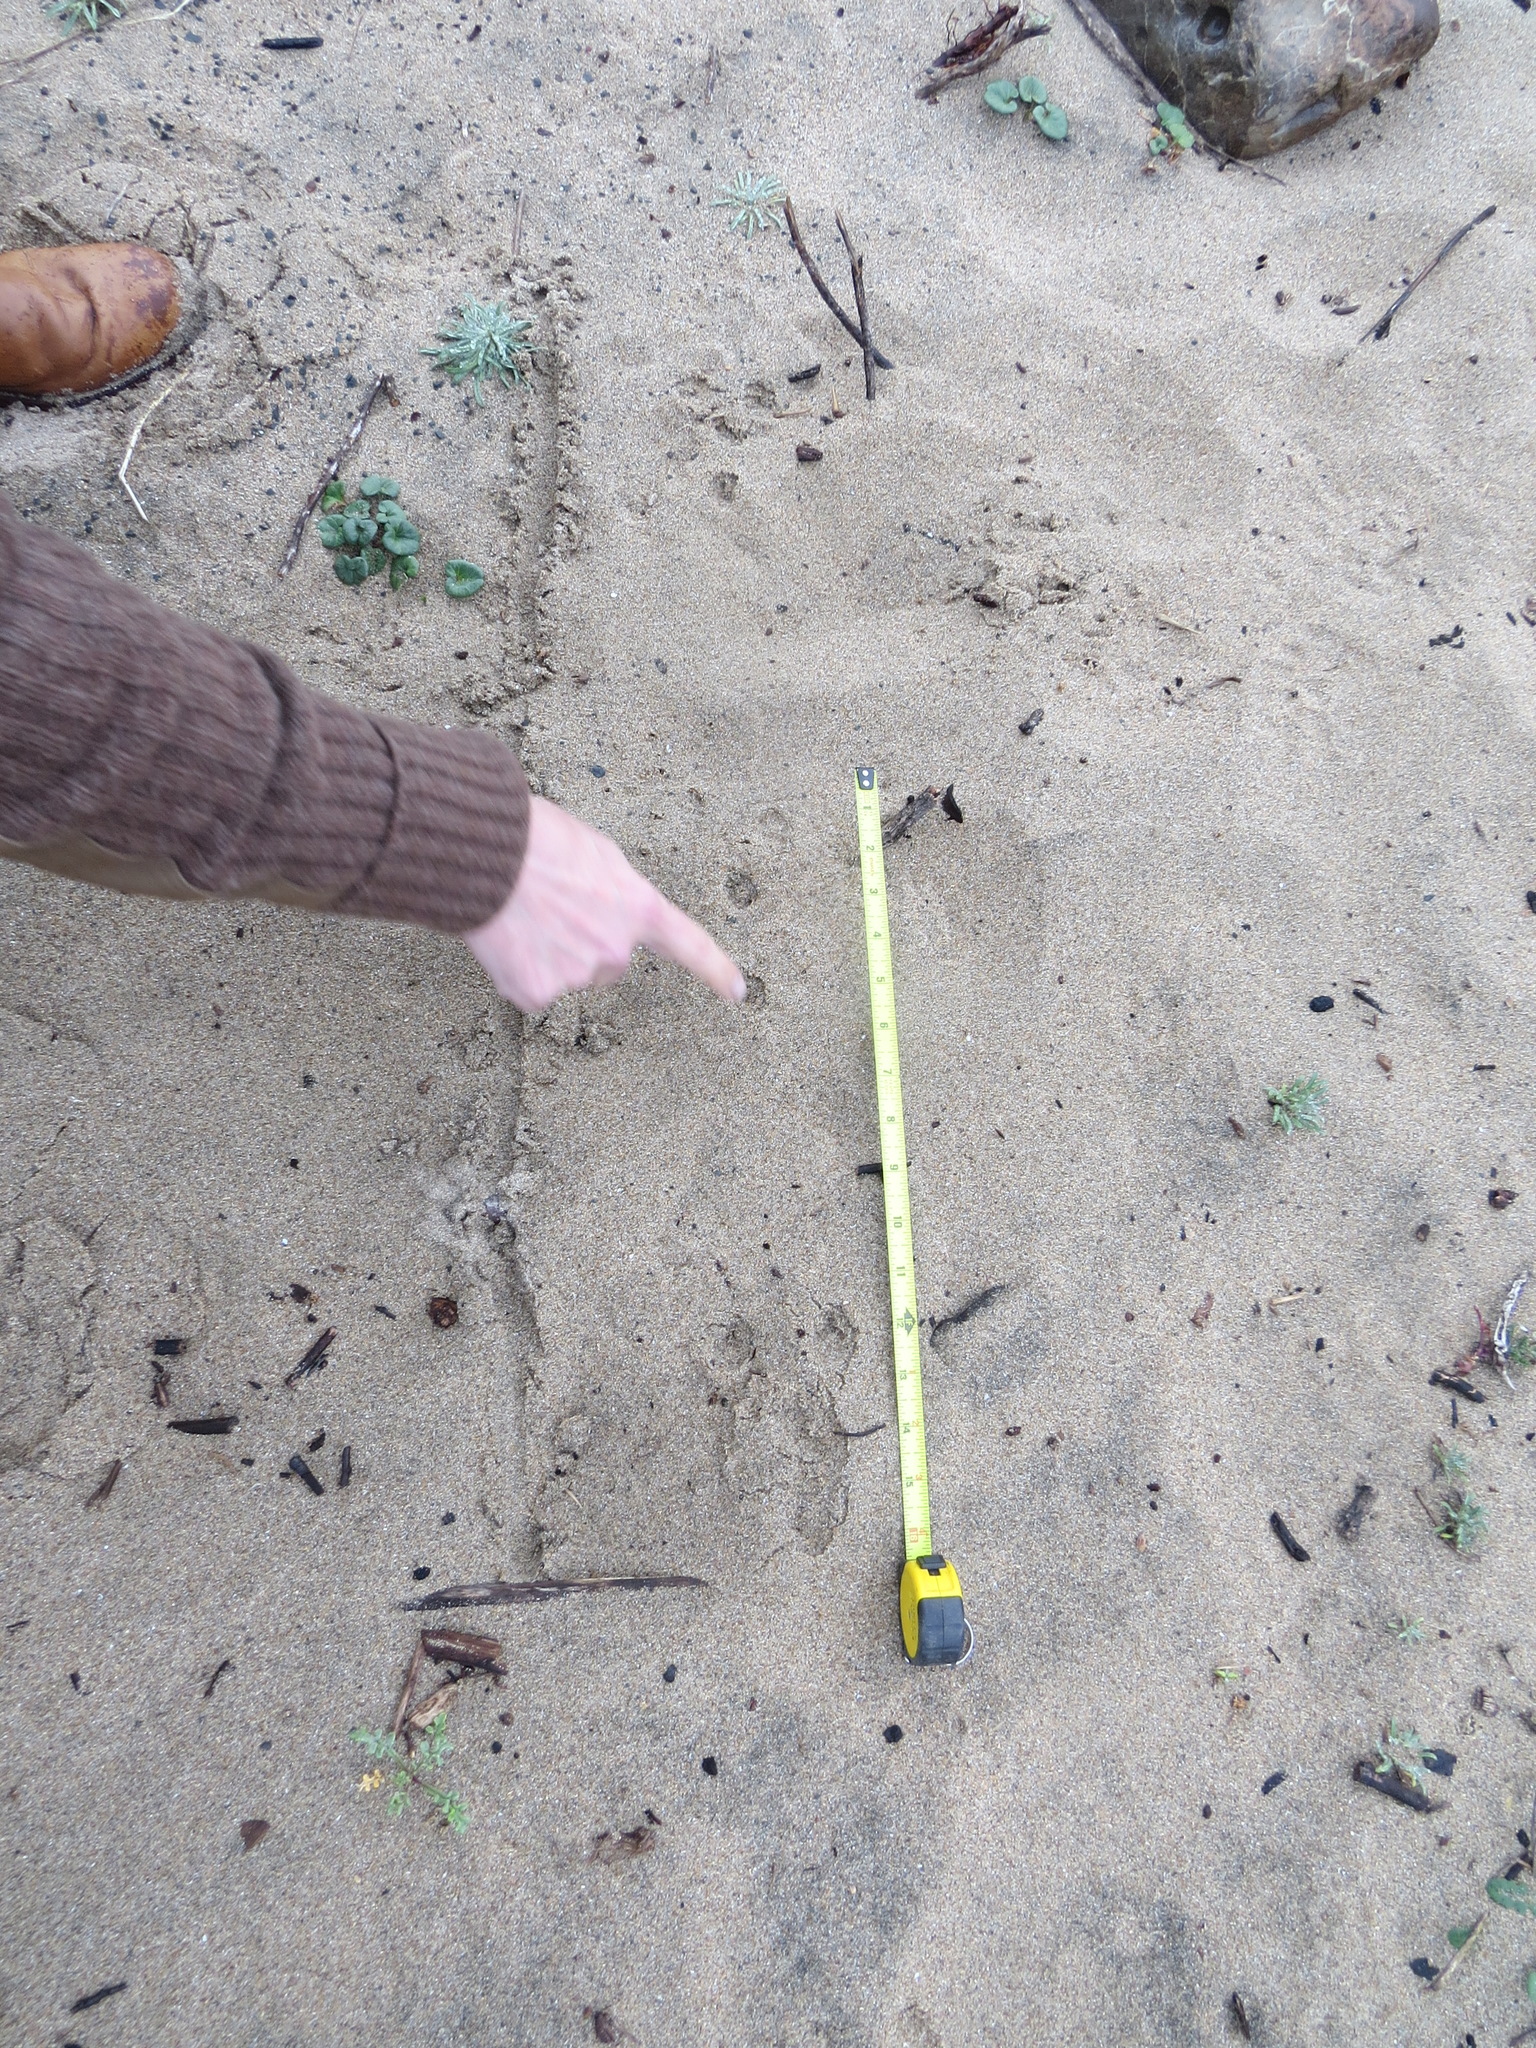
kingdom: Animalia
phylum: Chordata
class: Mammalia
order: Lagomorpha
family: Leporidae
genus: Sylvilagus
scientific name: Sylvilagus bachmani
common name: Brush rabbit
